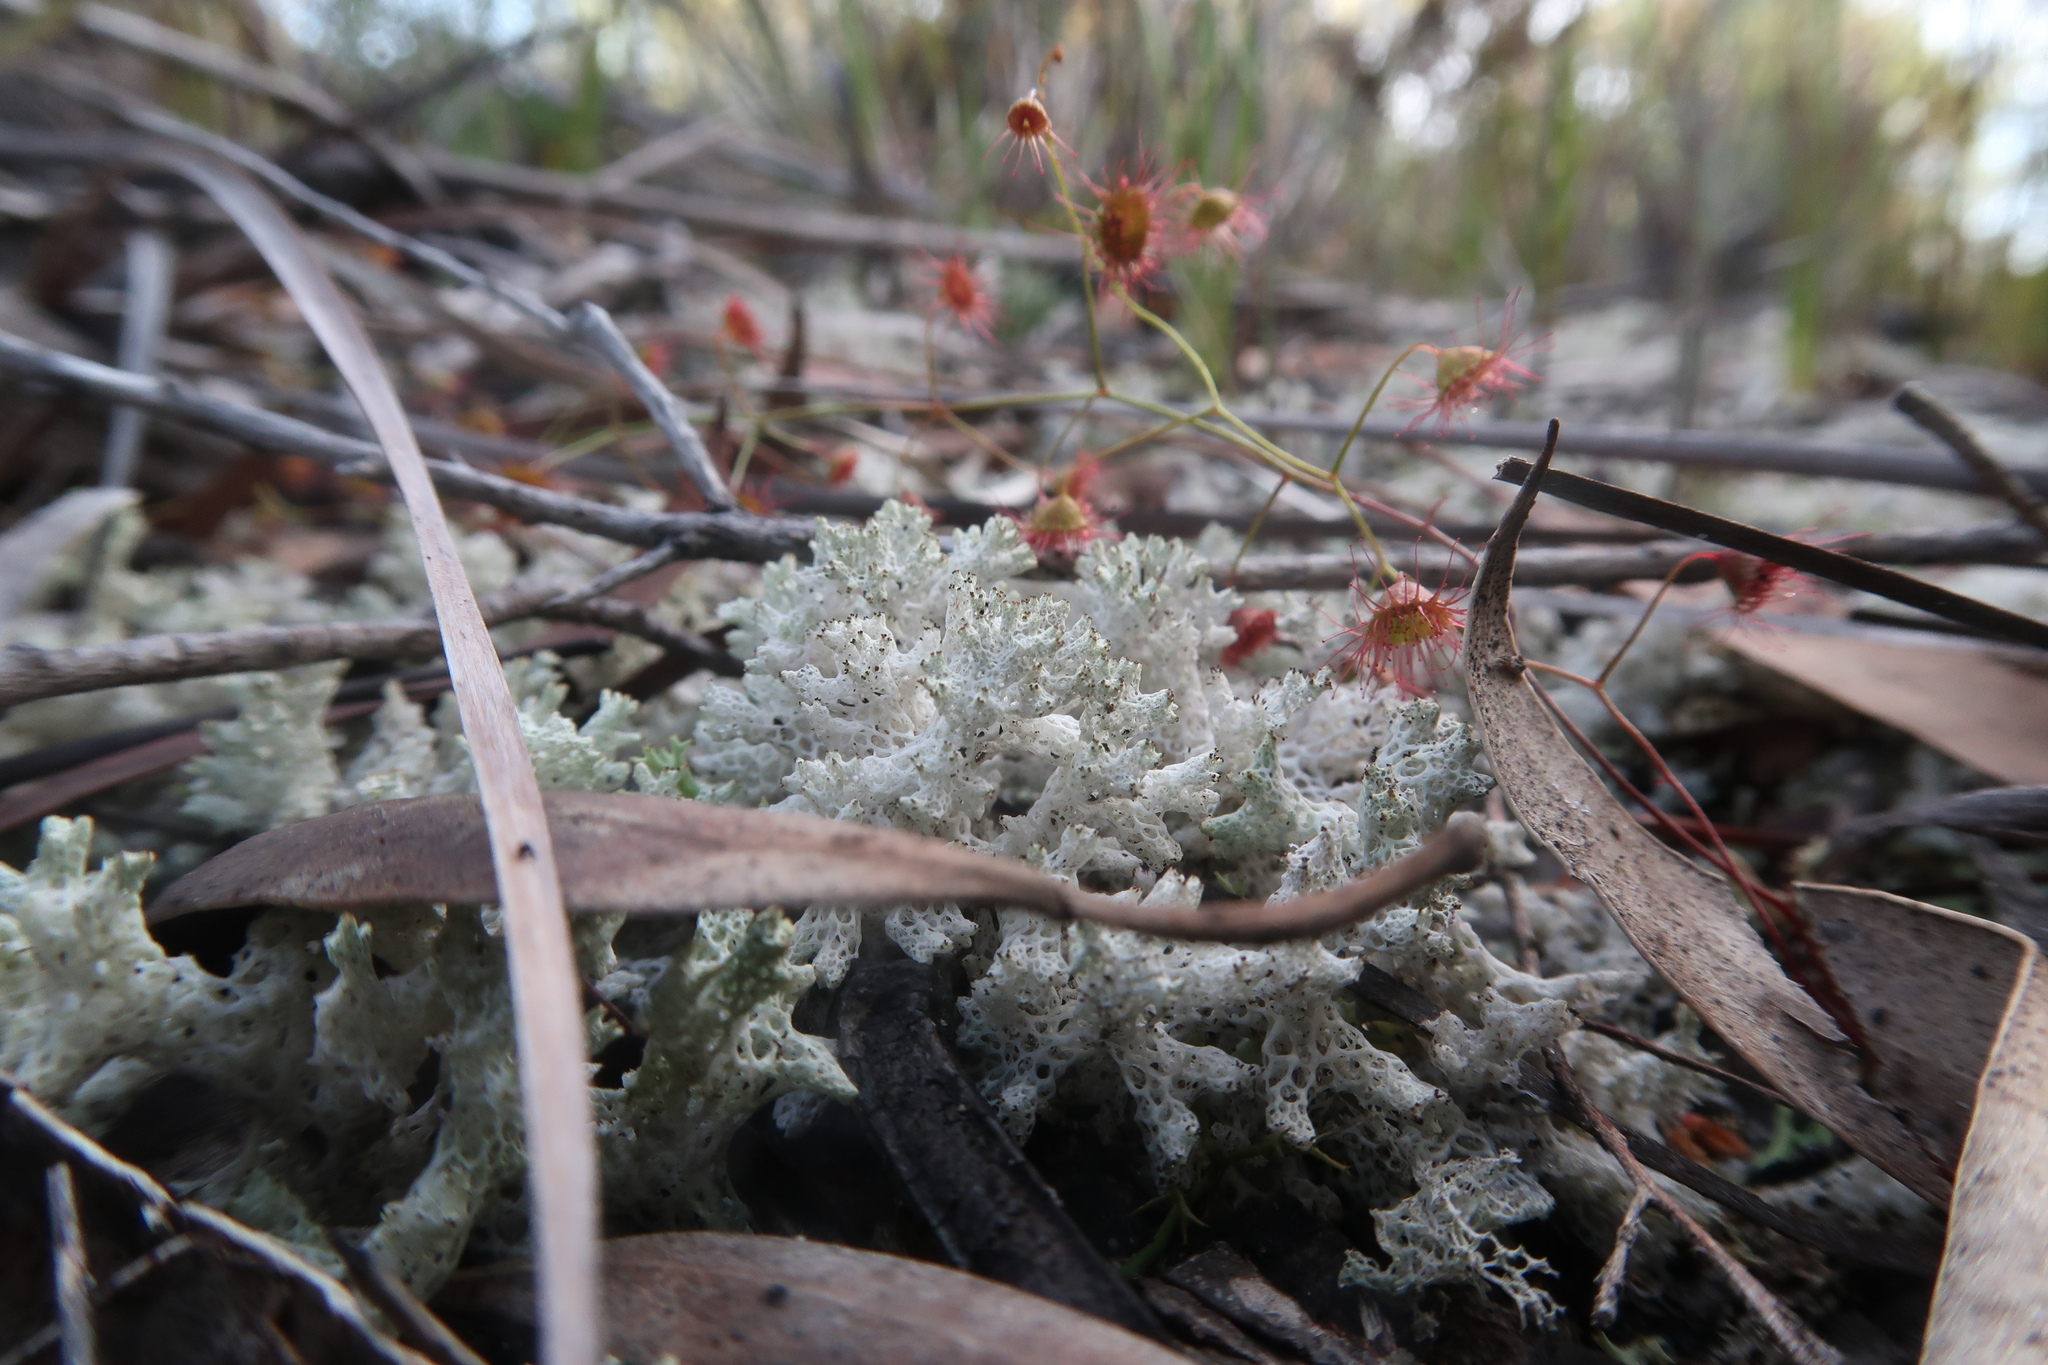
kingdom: Fungi
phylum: Ascomycota
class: Lecanoromycetes
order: Lecanorales
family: Cladoniaceae
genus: Pulchrocladia
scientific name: Pulchrocladia retipora
